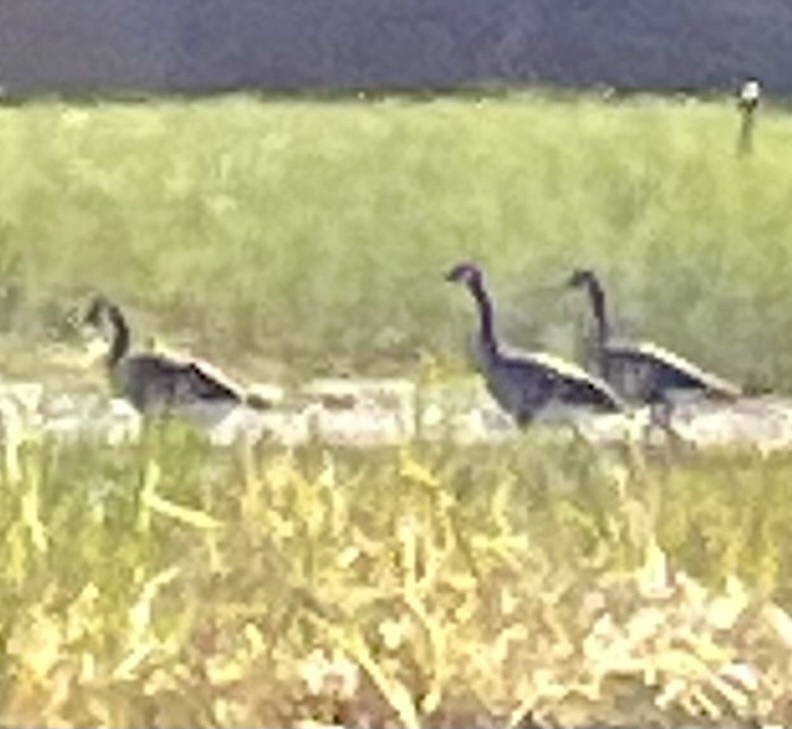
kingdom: Animalia
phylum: Chordata
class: Aves
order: Anseriformes
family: Anatidae
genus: Branta
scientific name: Branta canadensis
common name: Canada goose
